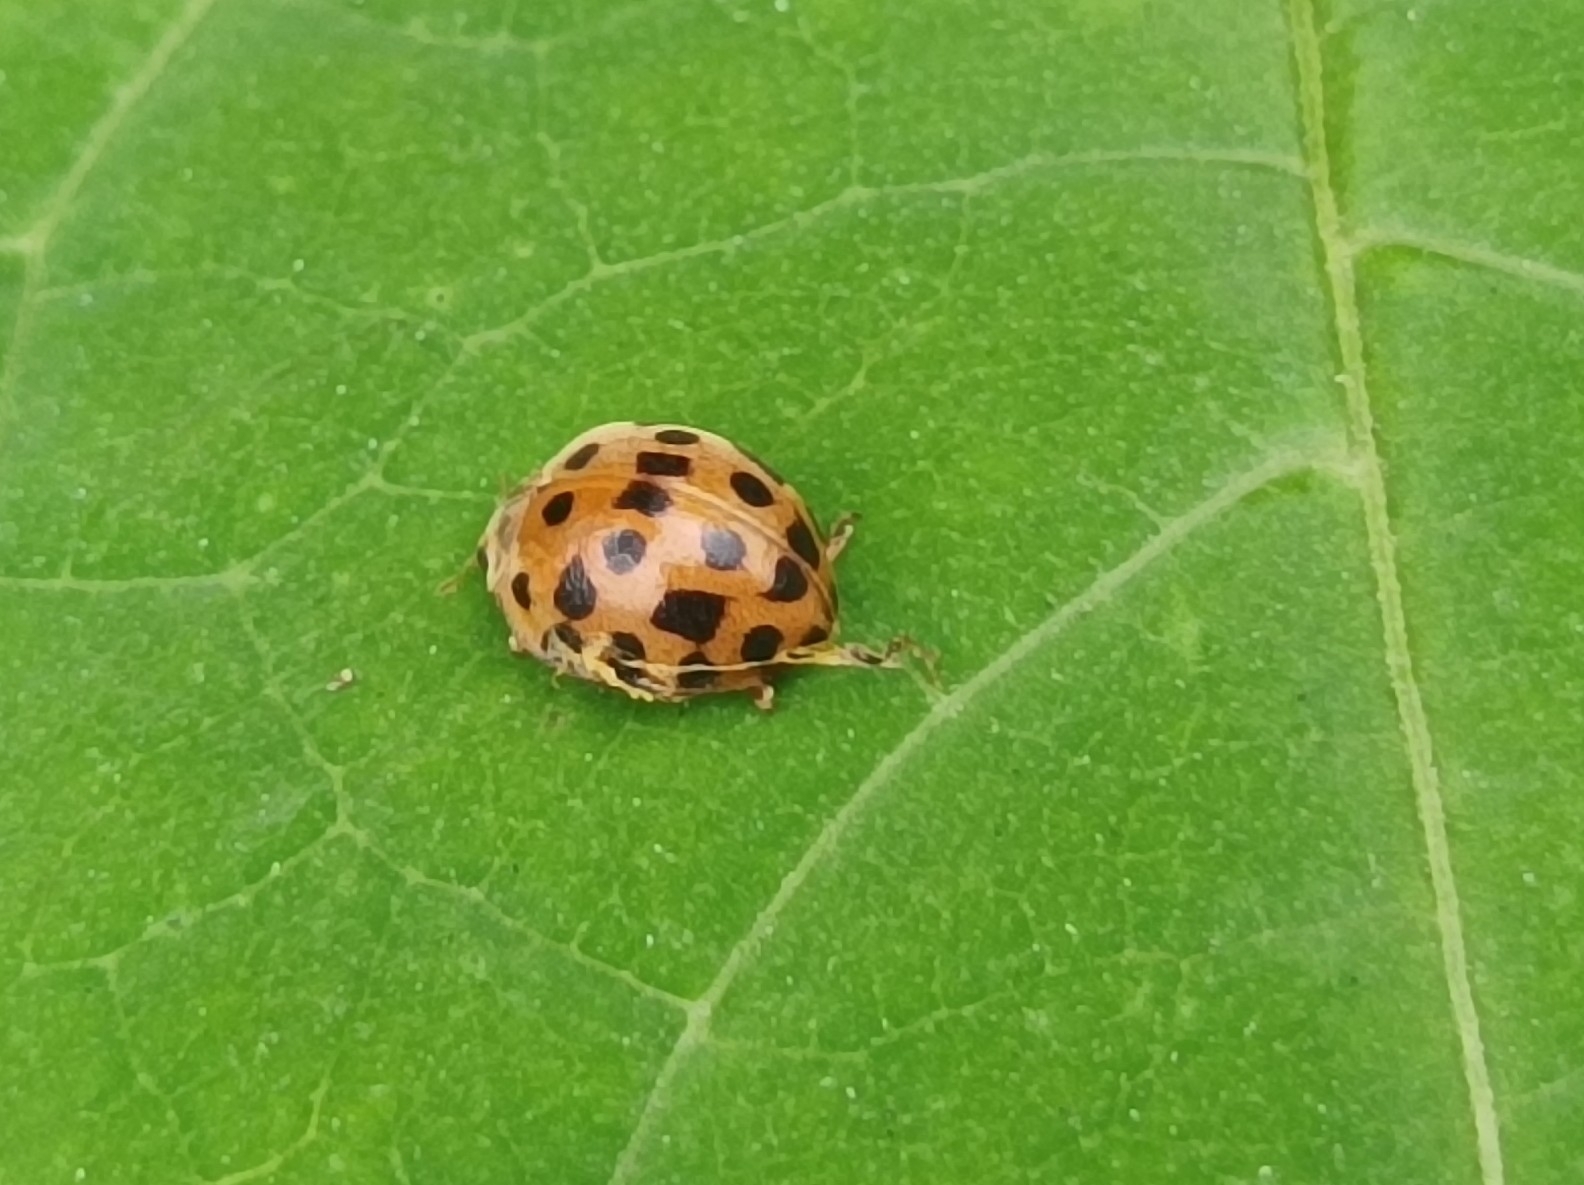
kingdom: Animalia
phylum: Arthropoda
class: Insecta
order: Coleoptera
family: Coccinellidae
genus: Henosepilachna
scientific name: Henosepilachna vigintioctopunctata
